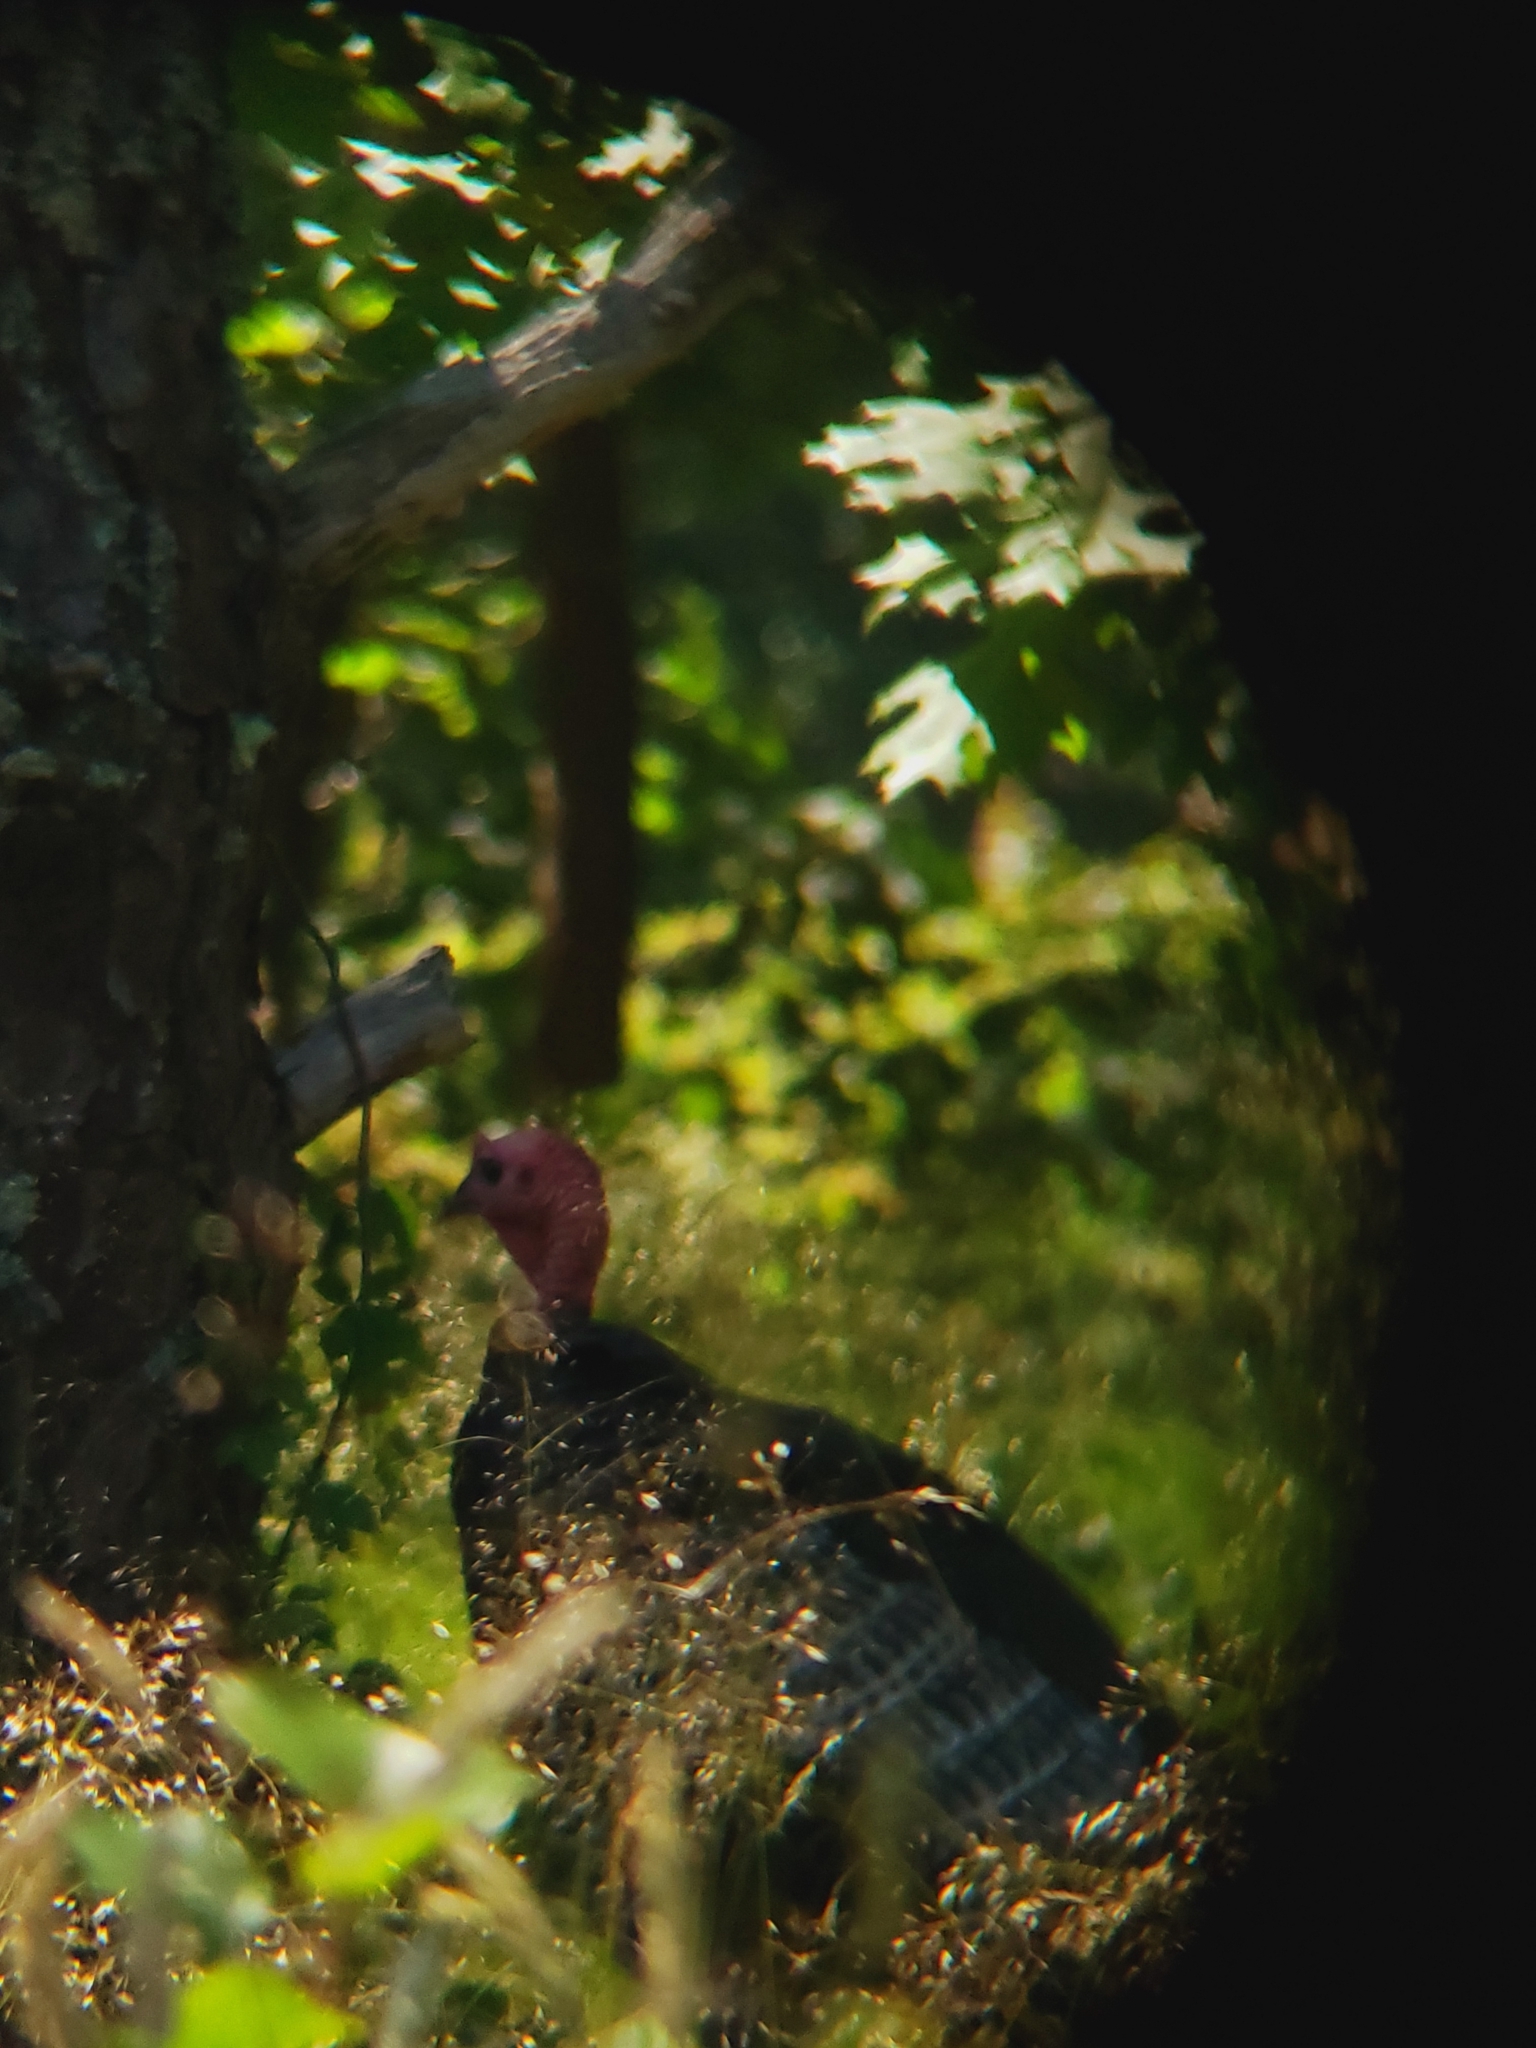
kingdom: Animalia
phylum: Chordata
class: Aves
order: Galliformes
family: Phasianidae
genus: Meleagris
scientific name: Meleagris gallopavo
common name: Wild turkey
